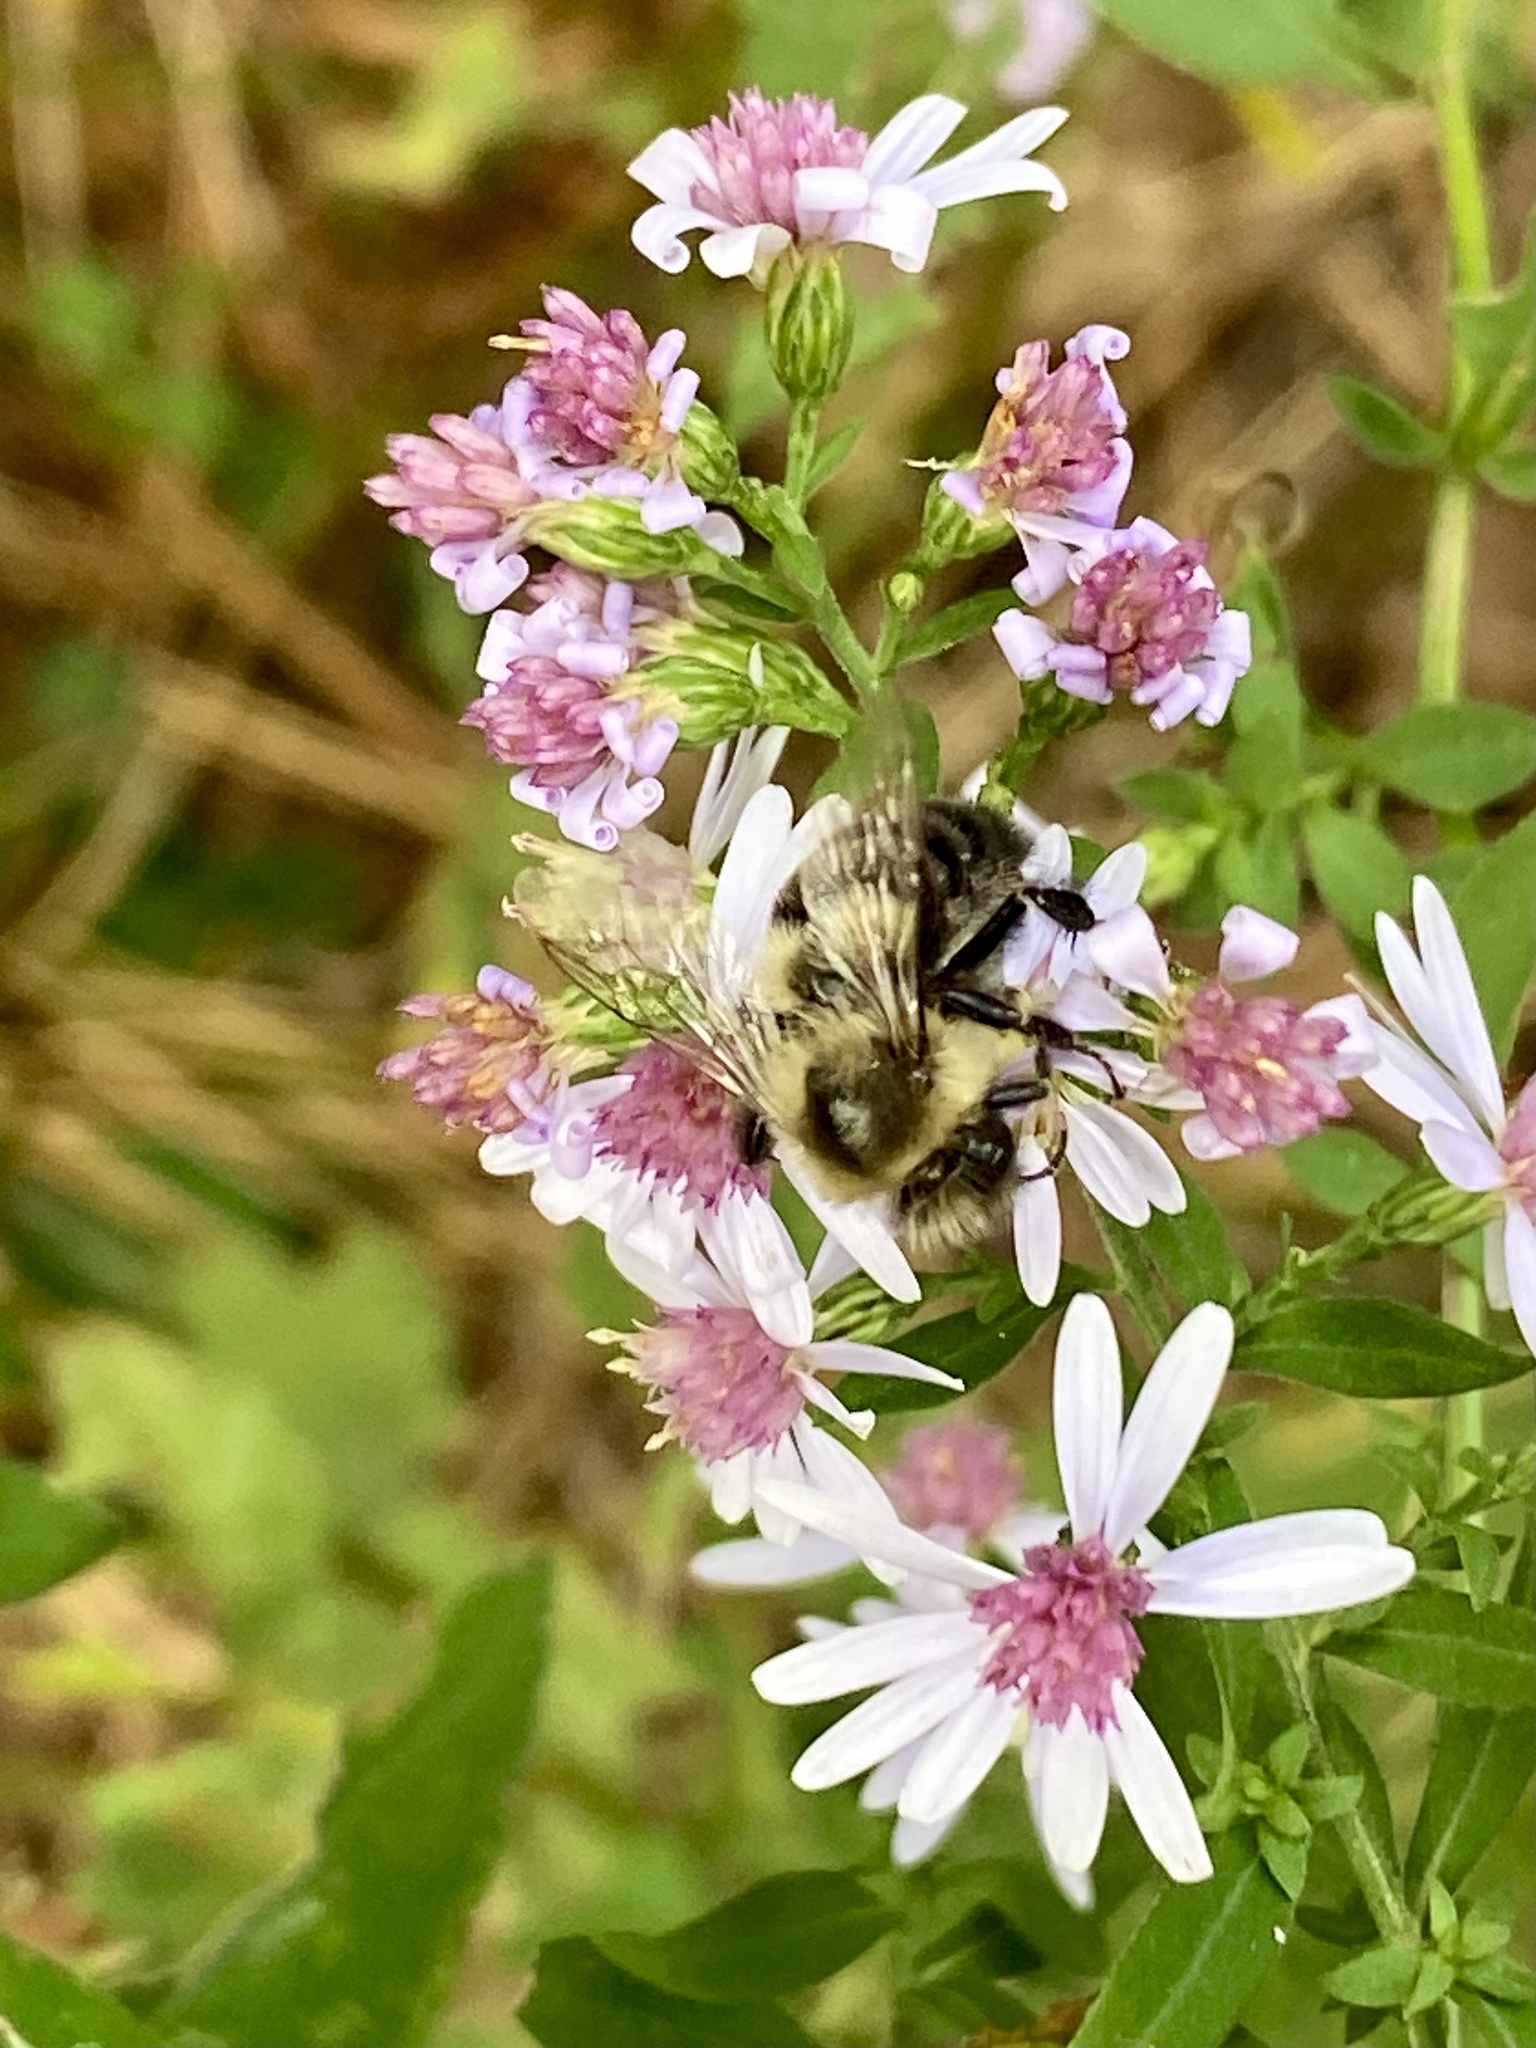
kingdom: Animalia
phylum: Arthropoda
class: Insecta
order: Hymenoptera
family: Apidae
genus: Bombus
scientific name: Bombus impatiens
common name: Common eastern bumble bee
